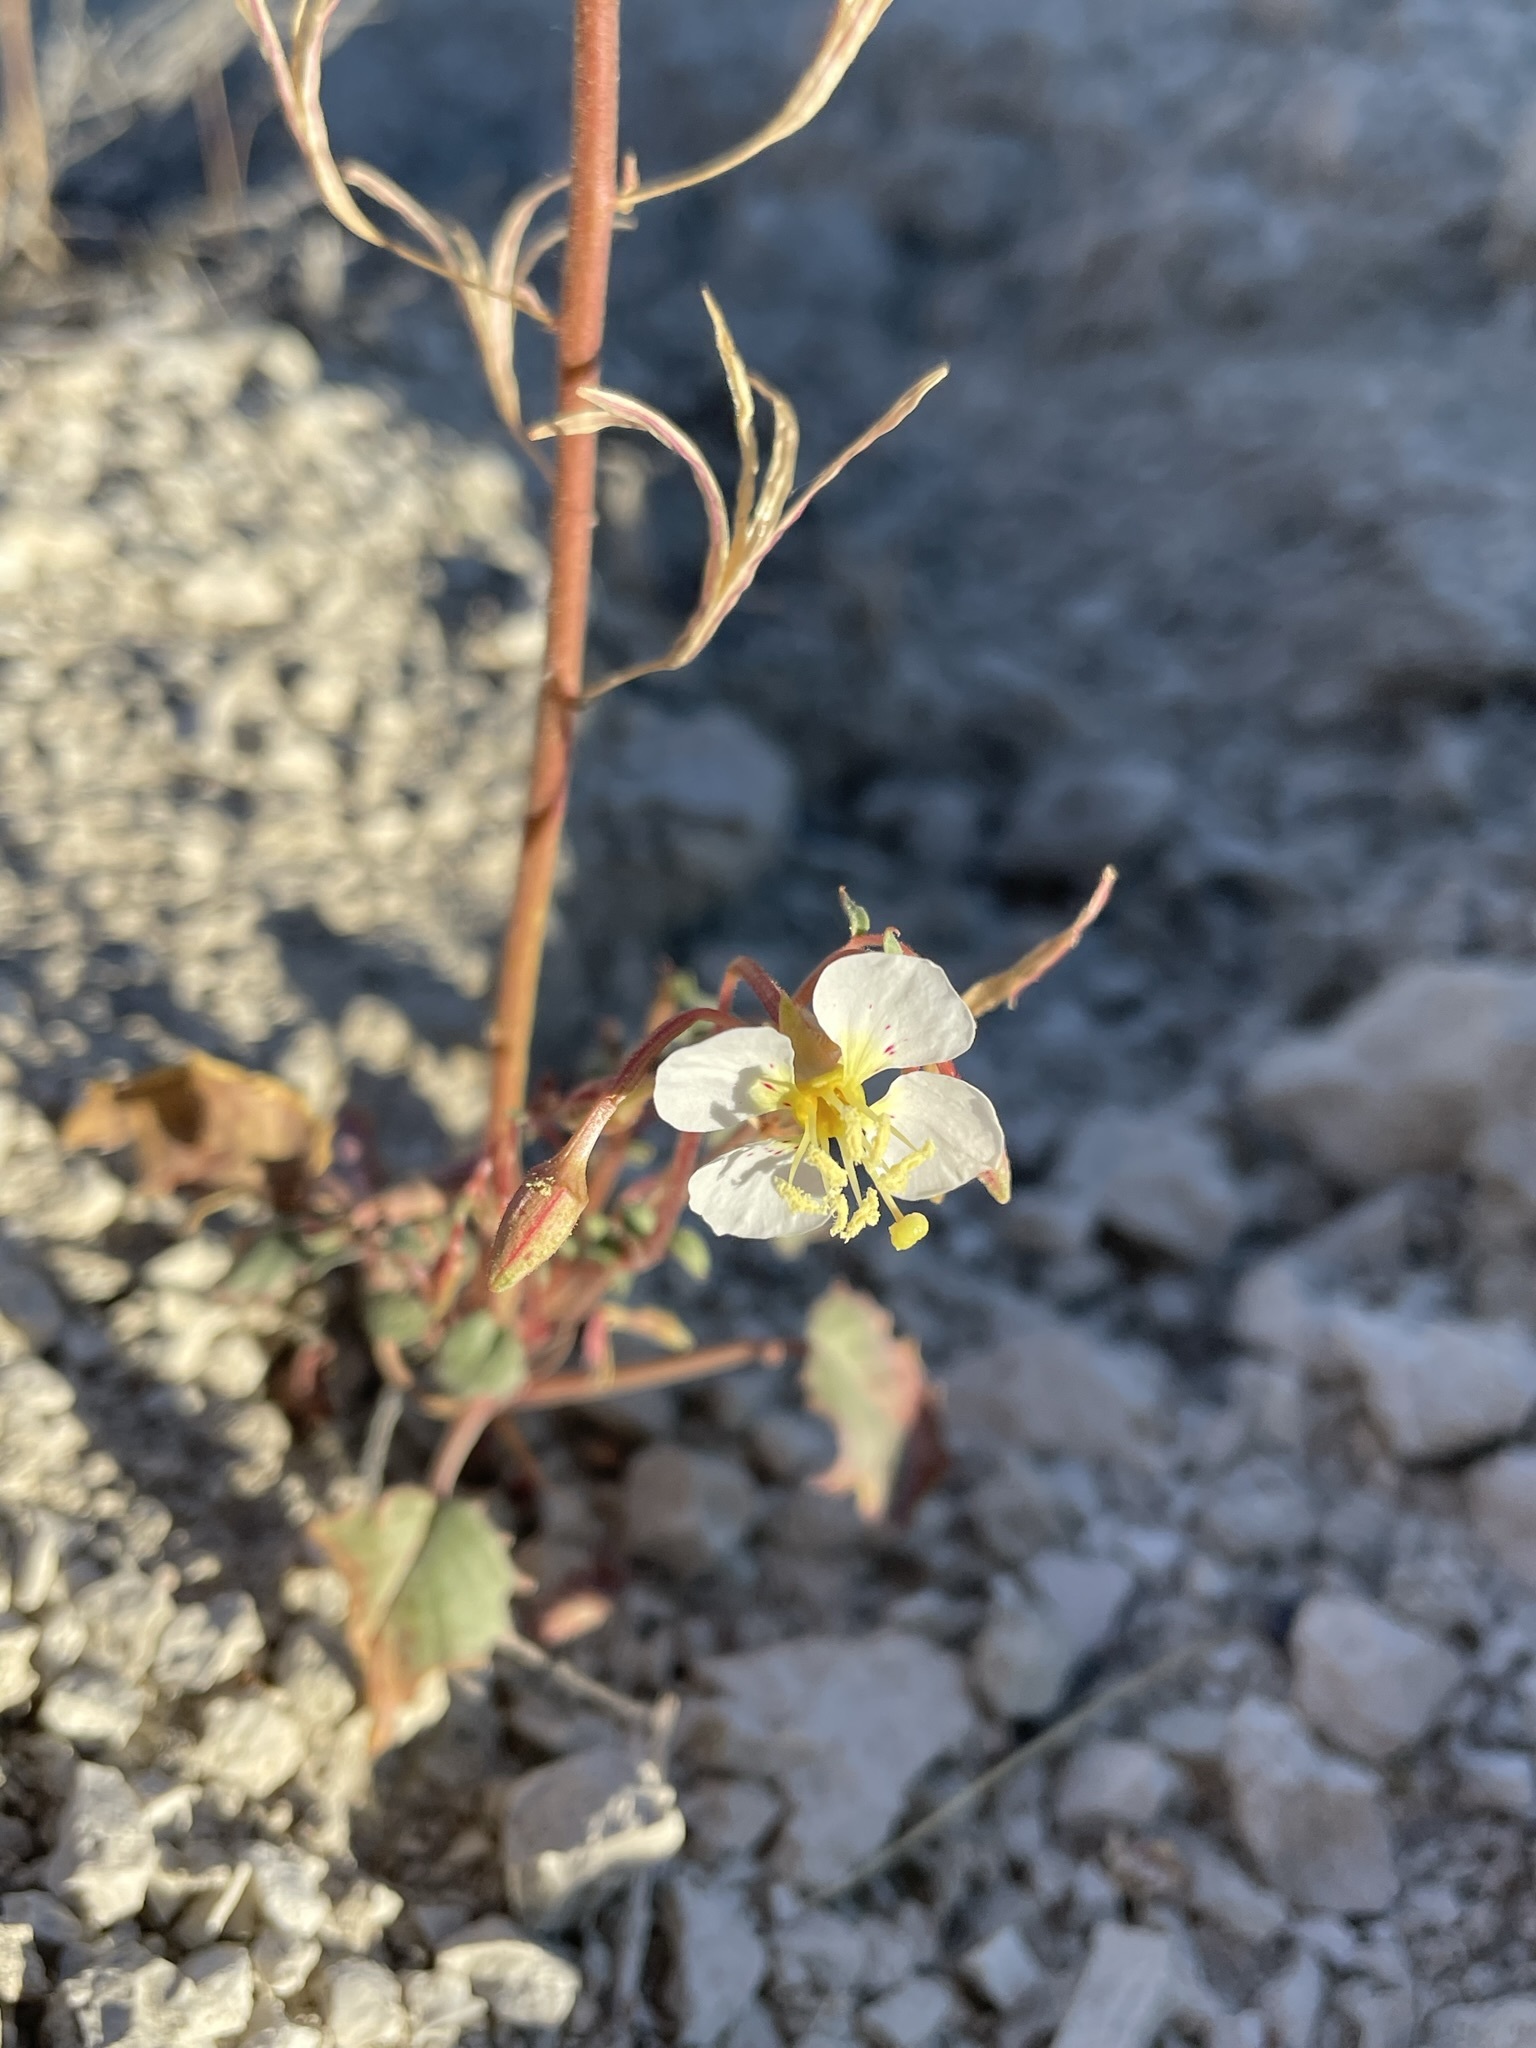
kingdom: Plantae
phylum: Tracheophyta
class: Magnoliopsida
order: Myrtales
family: Onagraceae
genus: Chylismia
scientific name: Chylismia claviformis
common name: Browneyes
